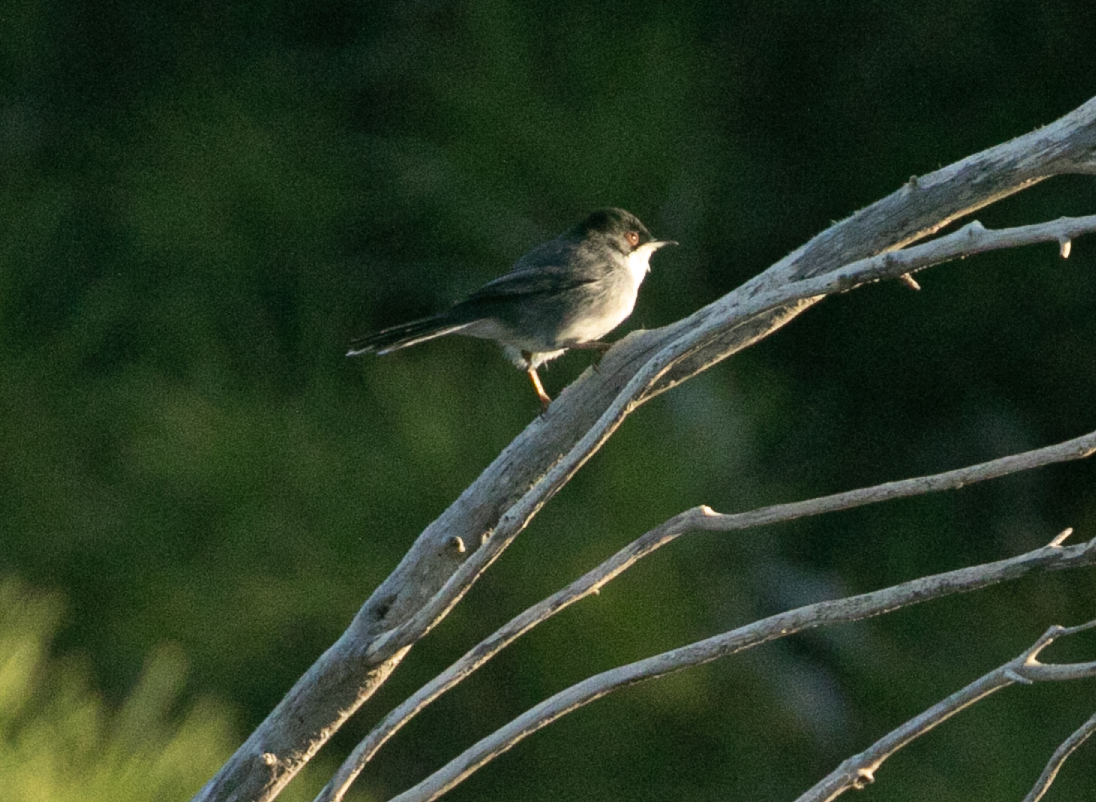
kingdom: Animalia
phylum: Chordata
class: Aves
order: Passeriformes
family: Sylviidae
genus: Curruca
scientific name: Curruca melanocephala
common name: Sardinian warbler
